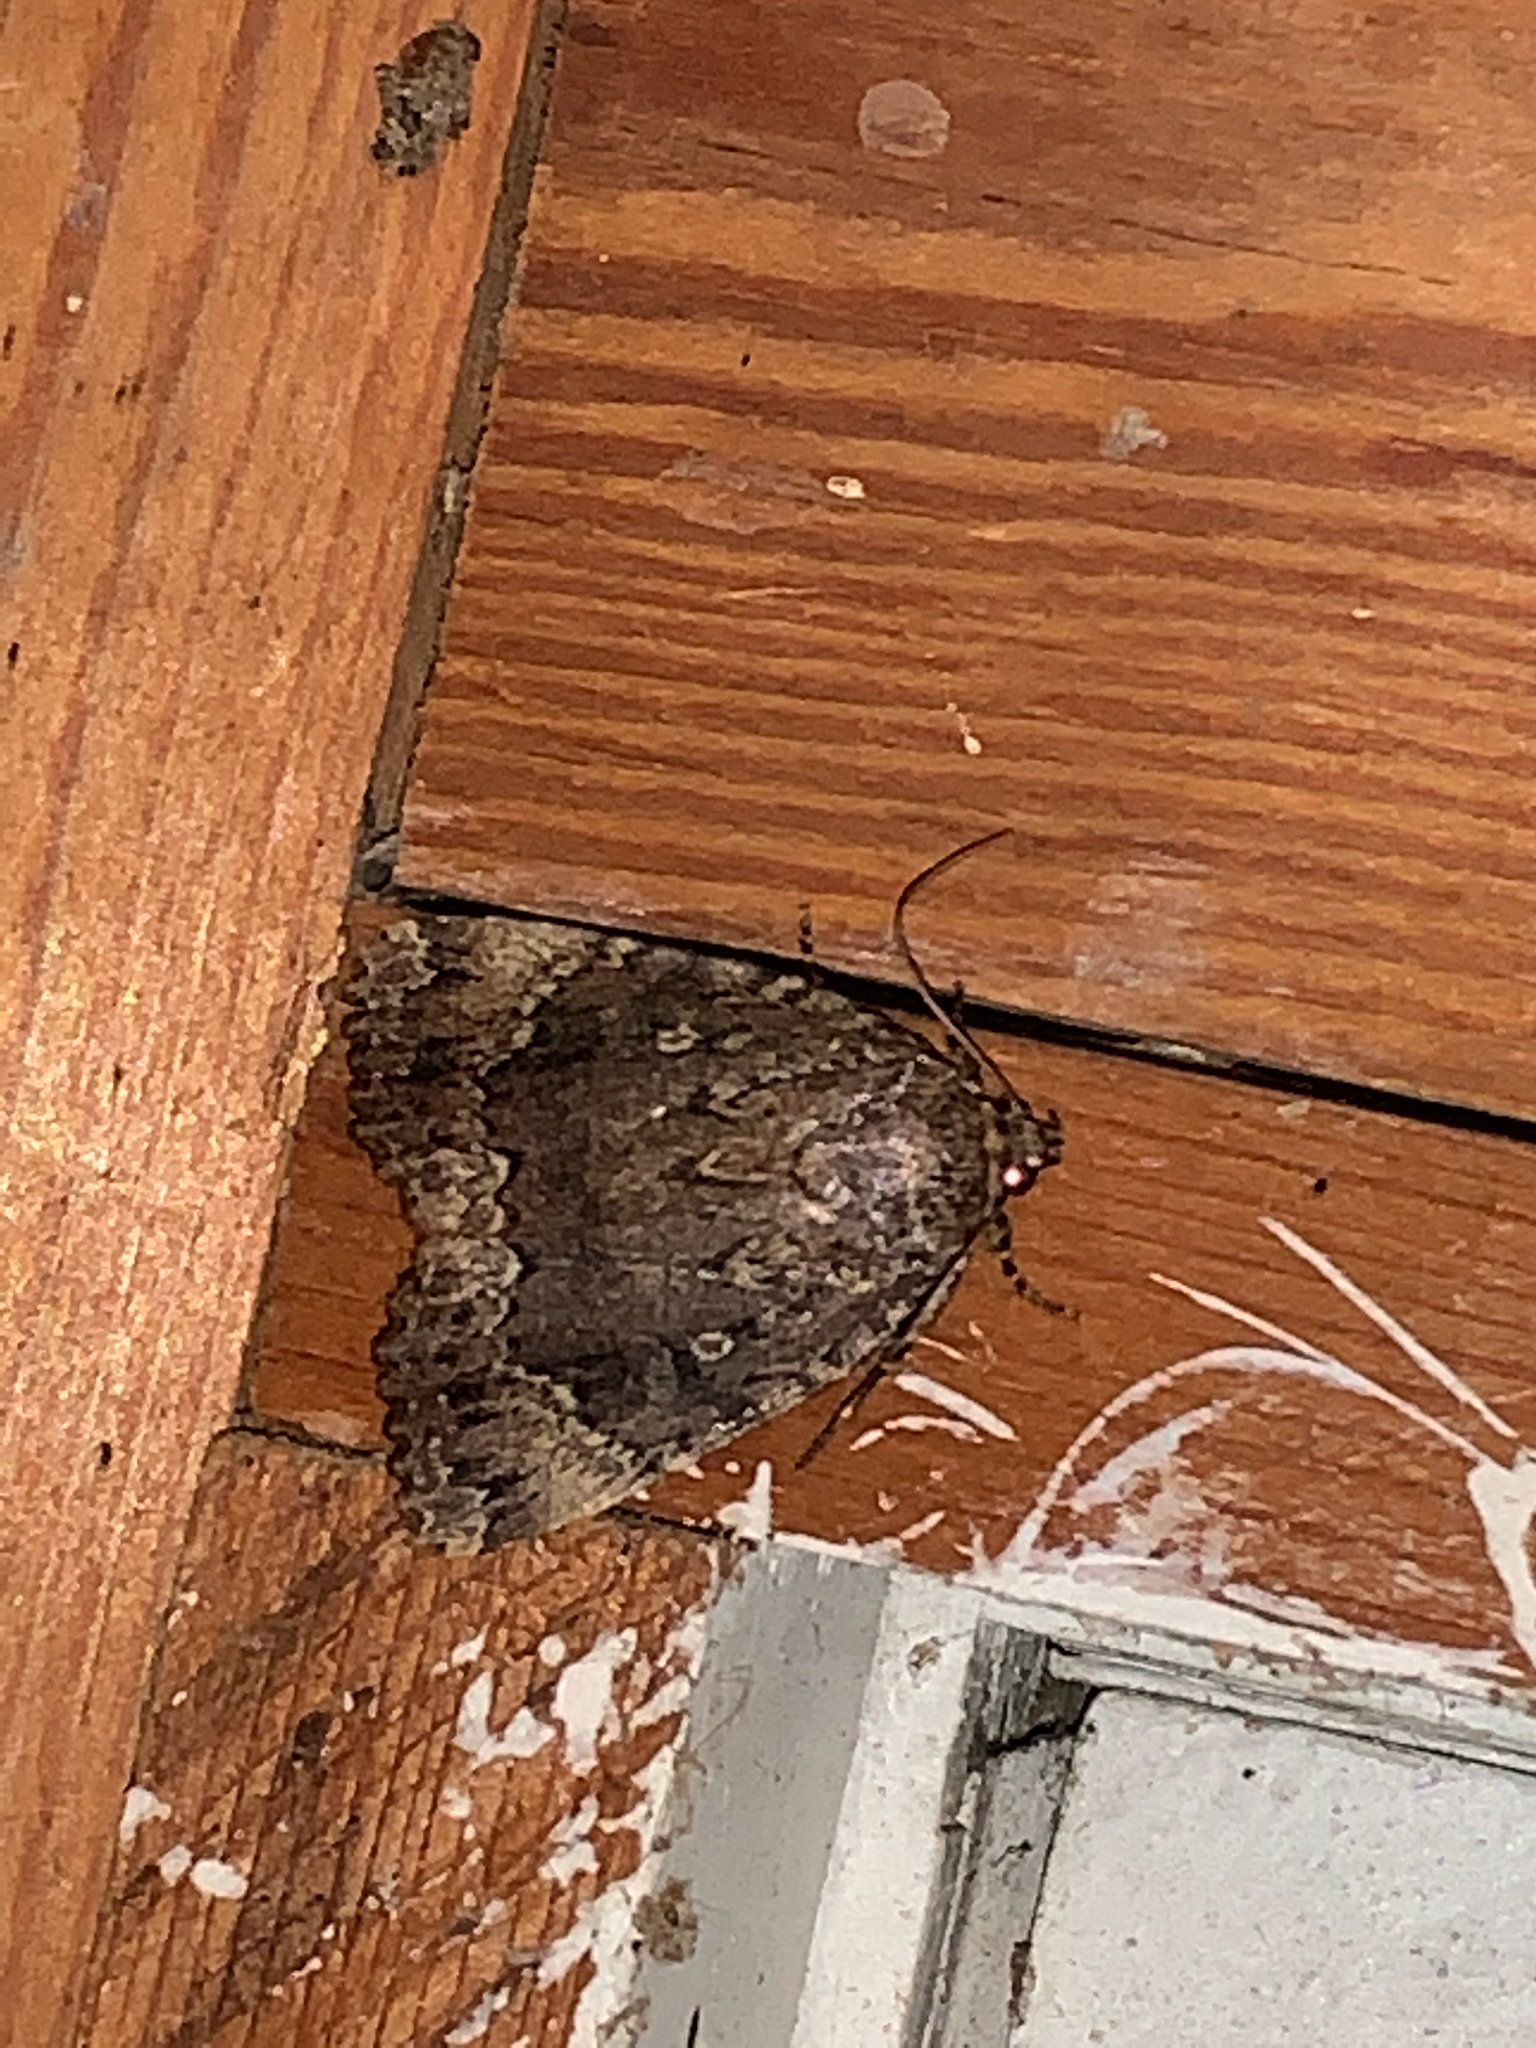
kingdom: Animalia
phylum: Arthropoda
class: Insecta
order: Lepidoptera
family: Noctuidae
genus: Amphipyra
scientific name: Amphipyra pyramidoides
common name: American copper underwing
